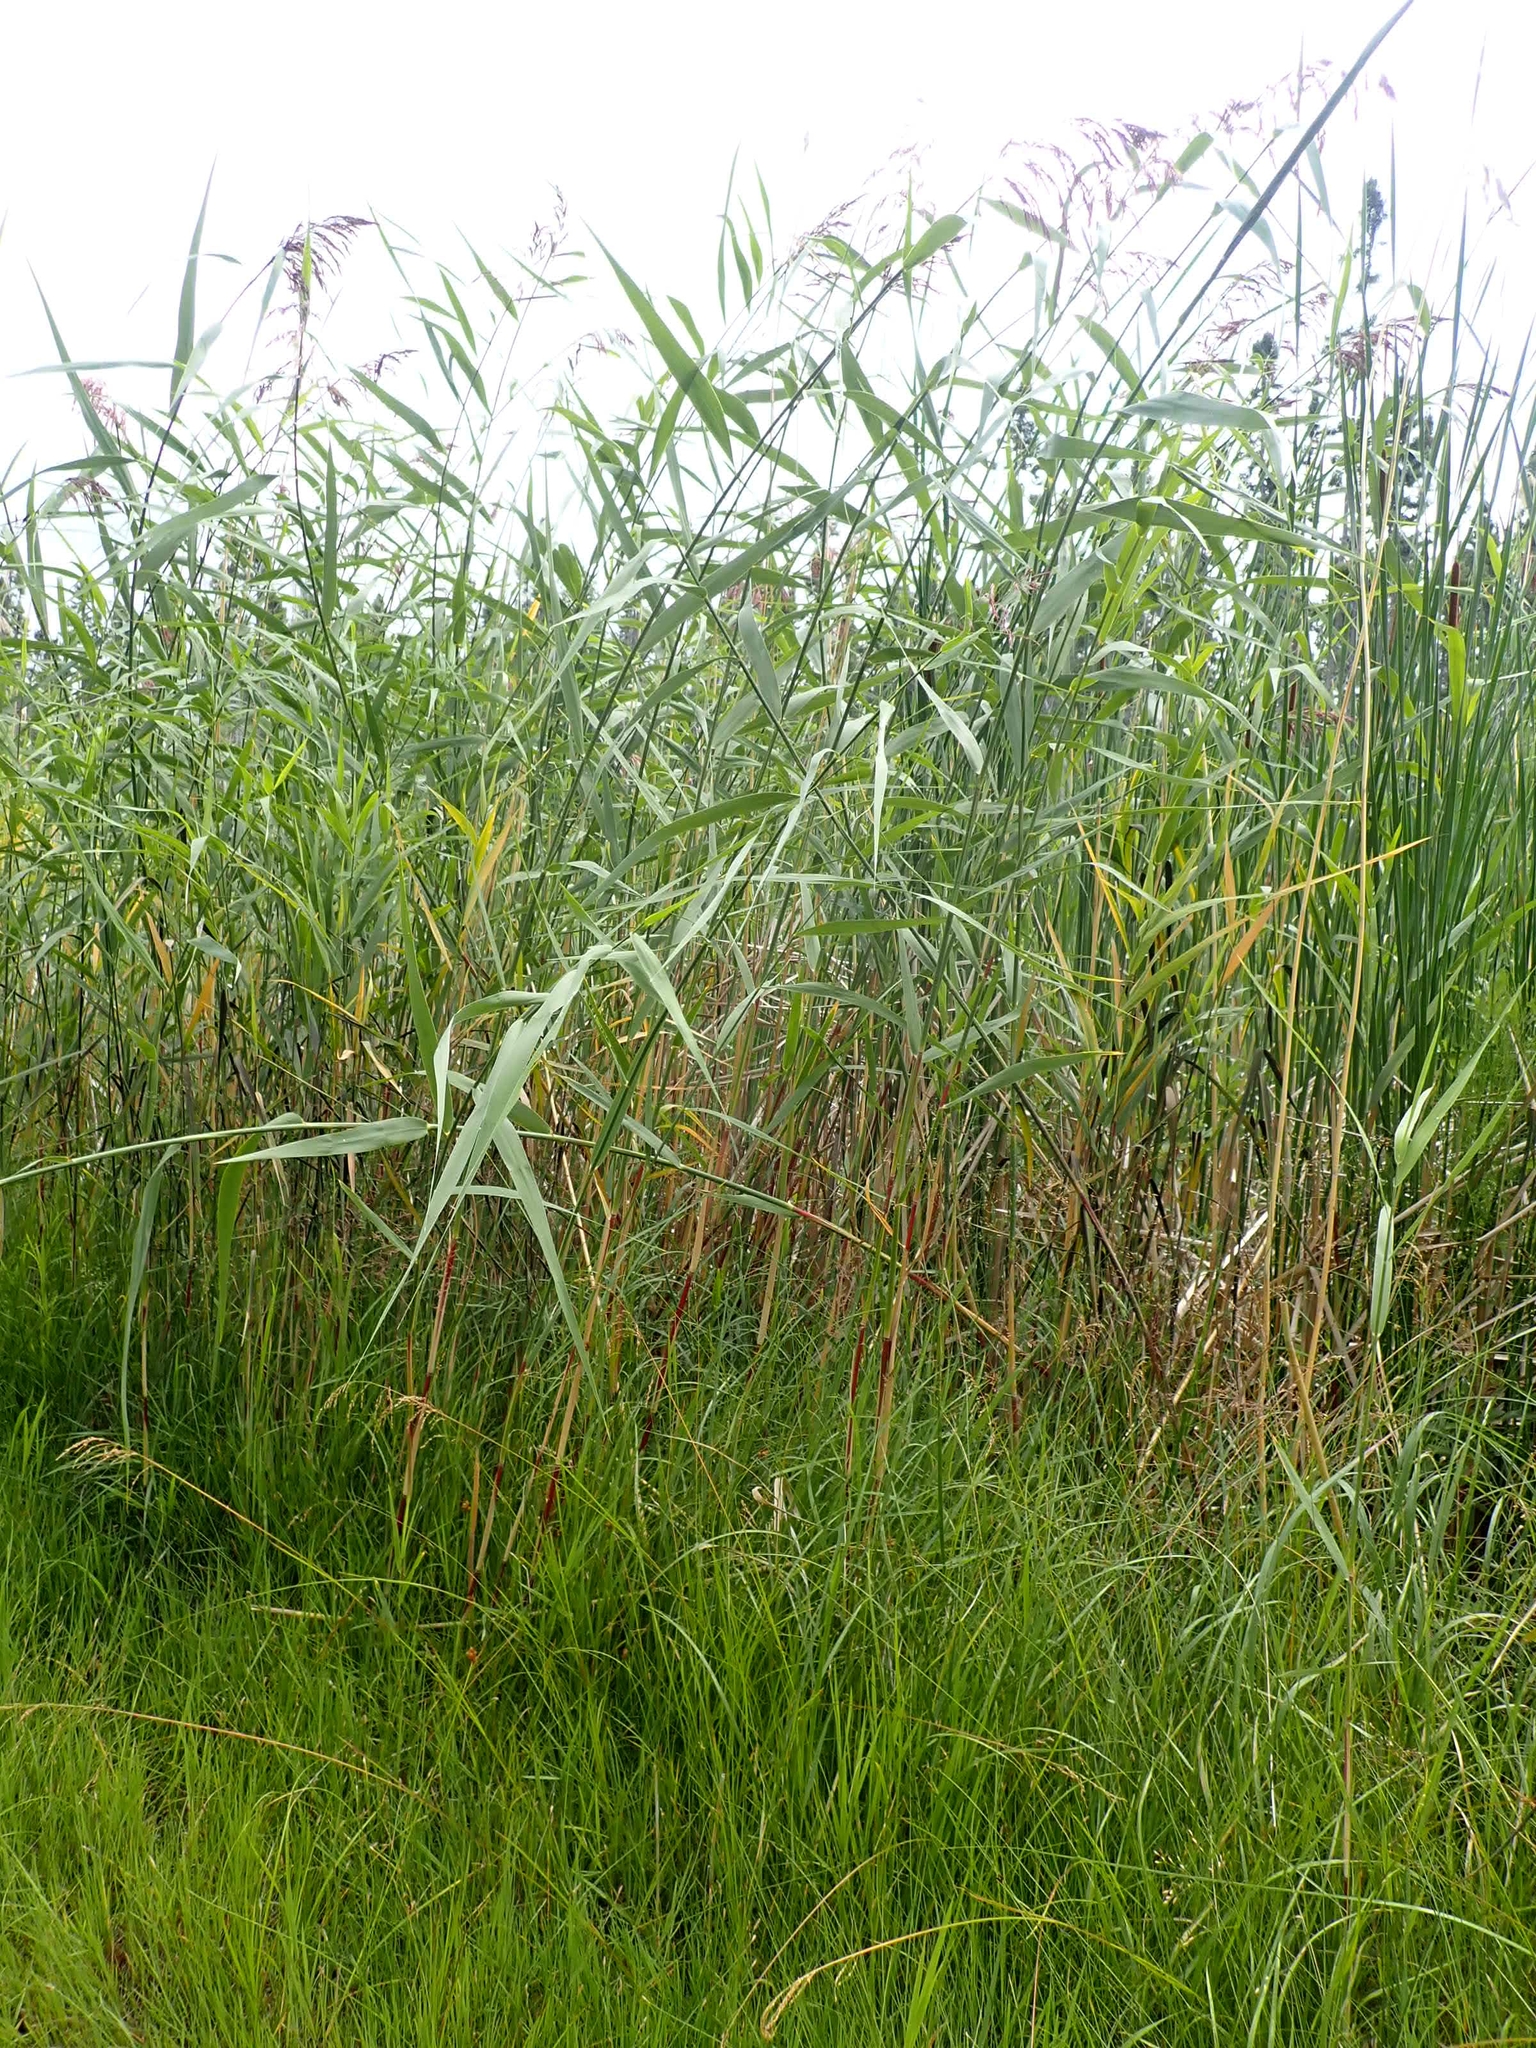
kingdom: Plantae
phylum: Tracheophyta
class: Liliopsida
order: Poales
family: Poaceae
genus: Phragmites
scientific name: Phragmites australis
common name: Common reed
